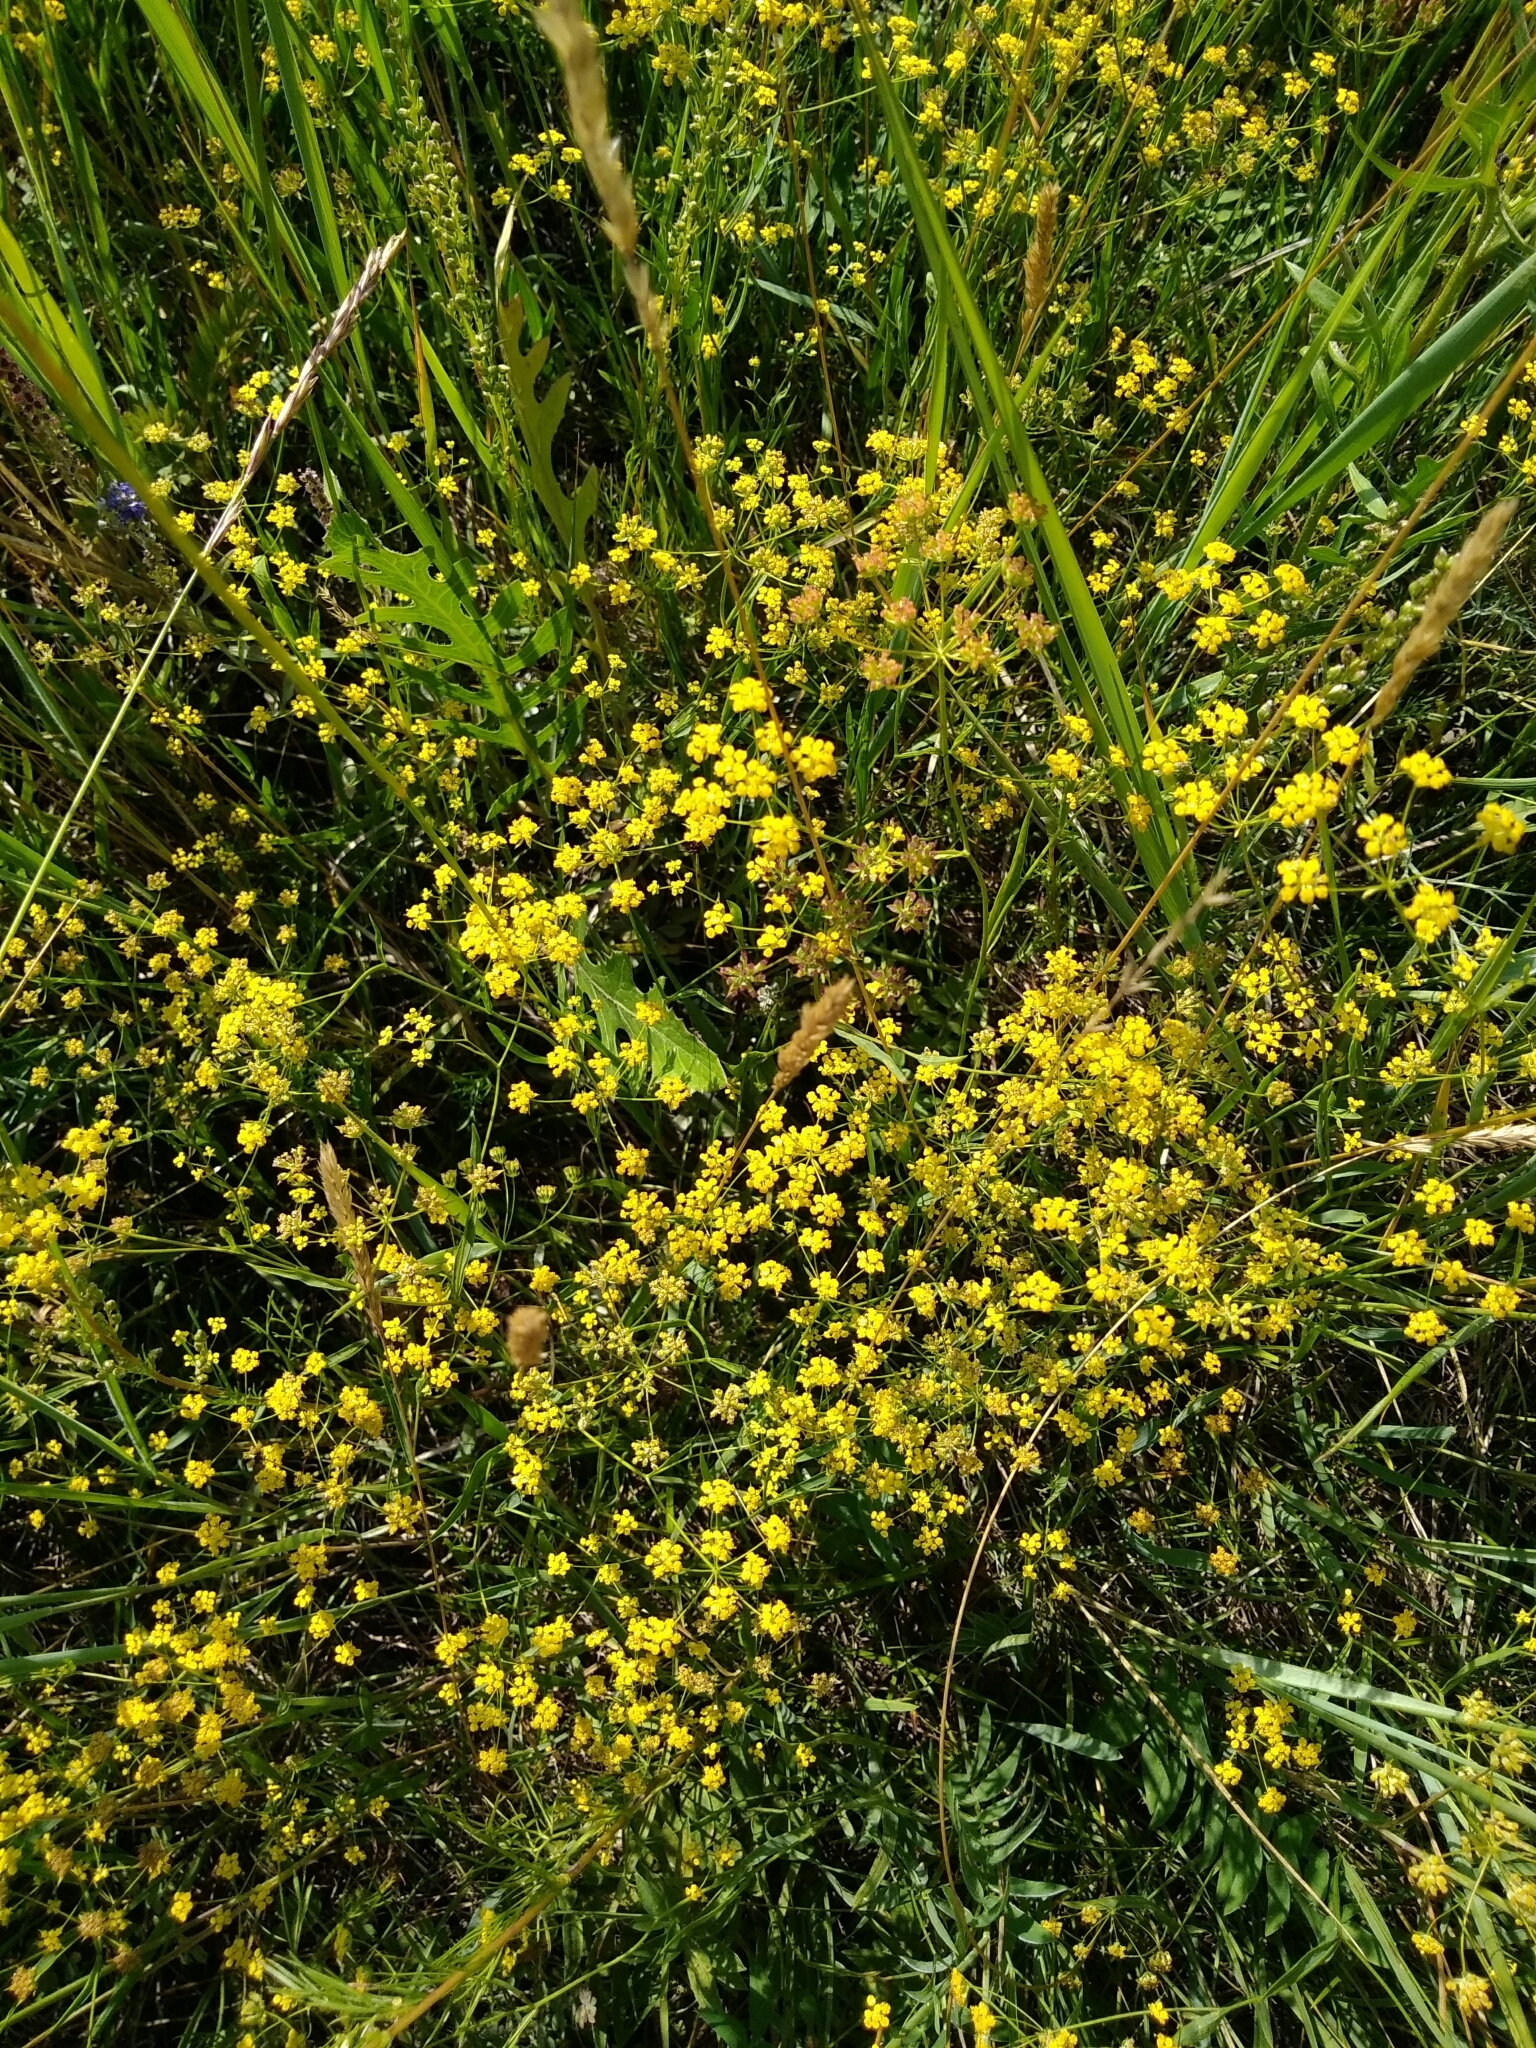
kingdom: Plantae
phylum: Tracheophyta
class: Magnoliopsida
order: Apiales
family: Apiaceae
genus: Bupleurum
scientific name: Bupleurum scorzonerifolium
